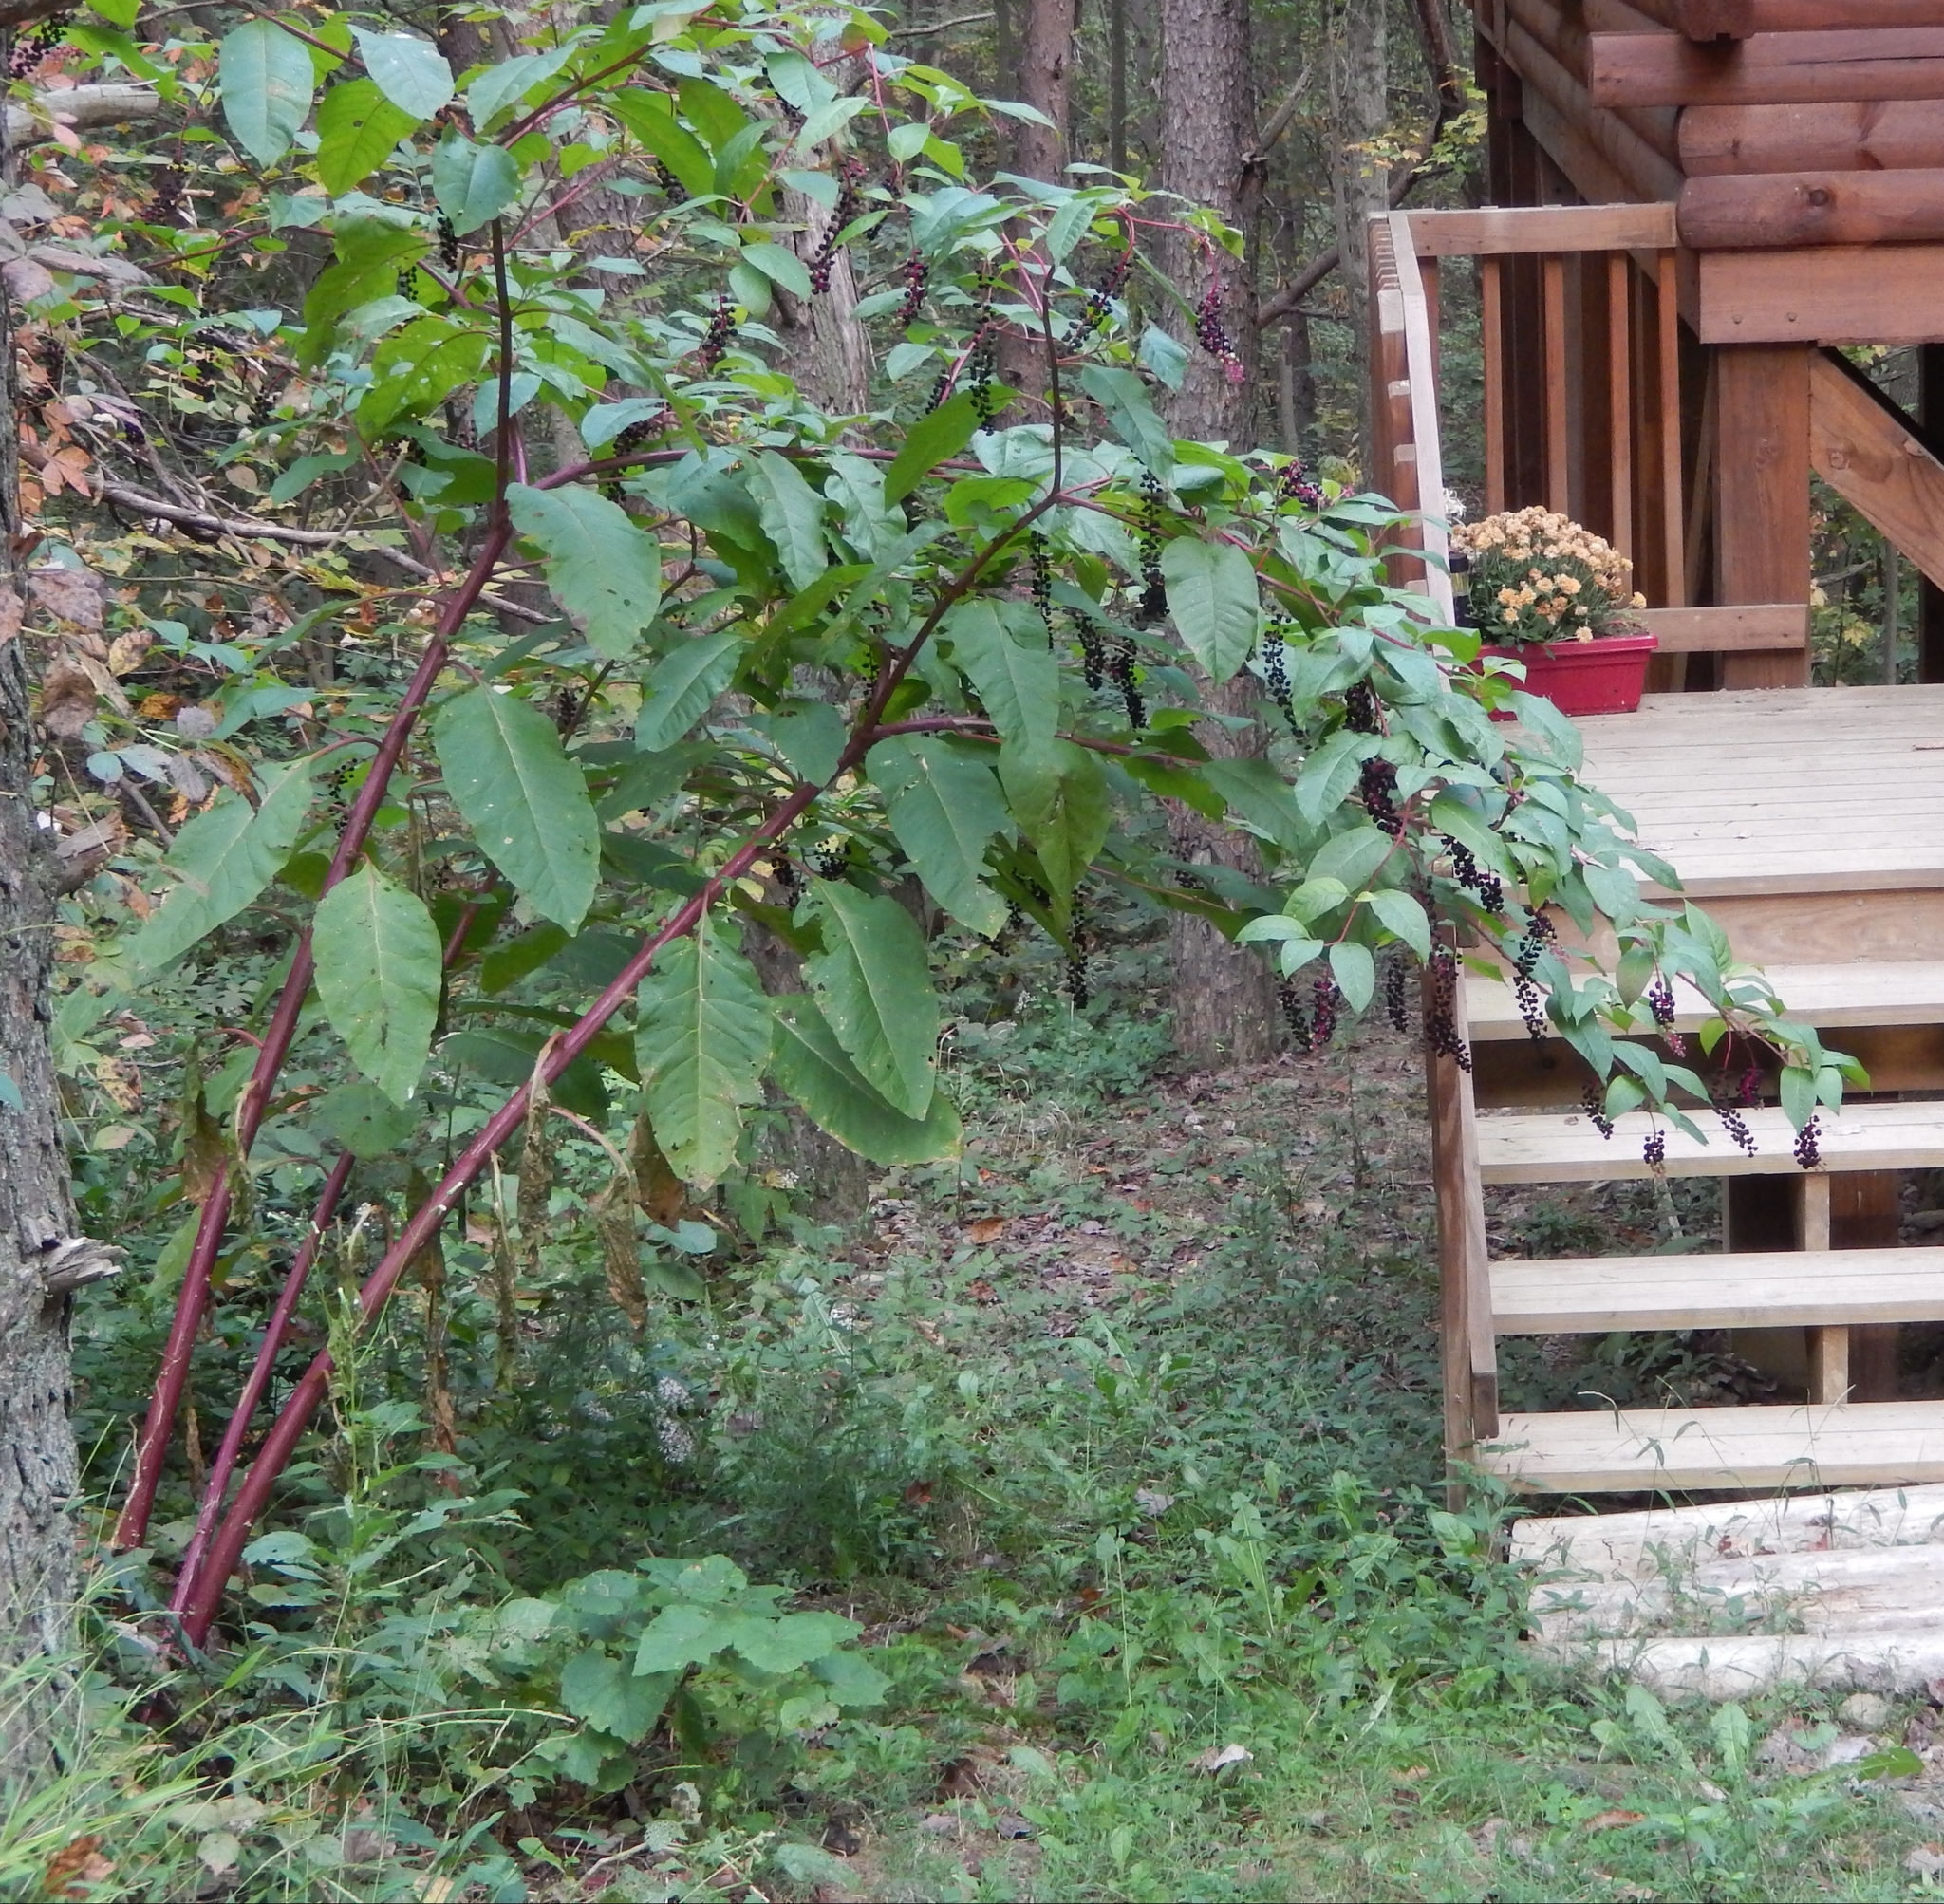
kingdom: Plantae
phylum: Tracheophyta
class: Magnoliopsida
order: Caryophyllales
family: Phytolaccaceae
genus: Phytolacca
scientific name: Phytolacca americana
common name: American pokeweed
